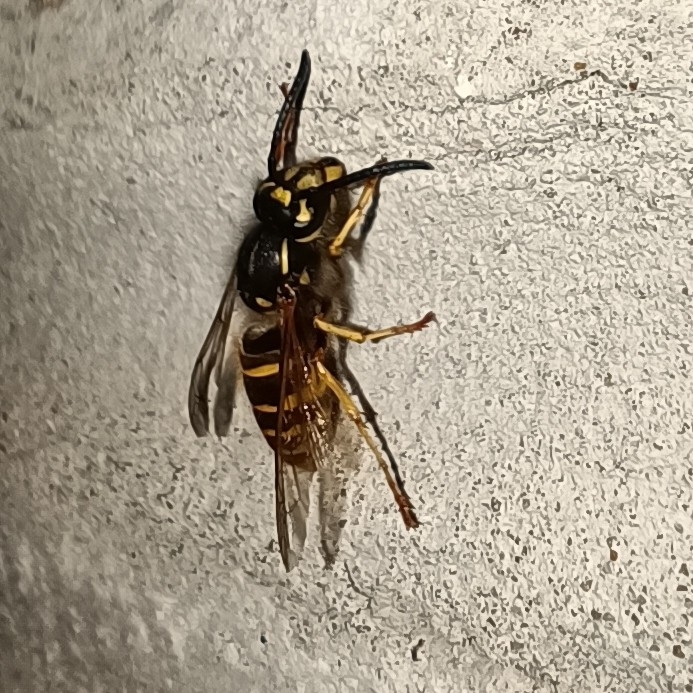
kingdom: Animalia
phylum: Arthropoda
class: Insecta
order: Hymenoptera
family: Vespidae
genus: Vespula
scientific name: Vespula vulgaris
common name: Common wasp
